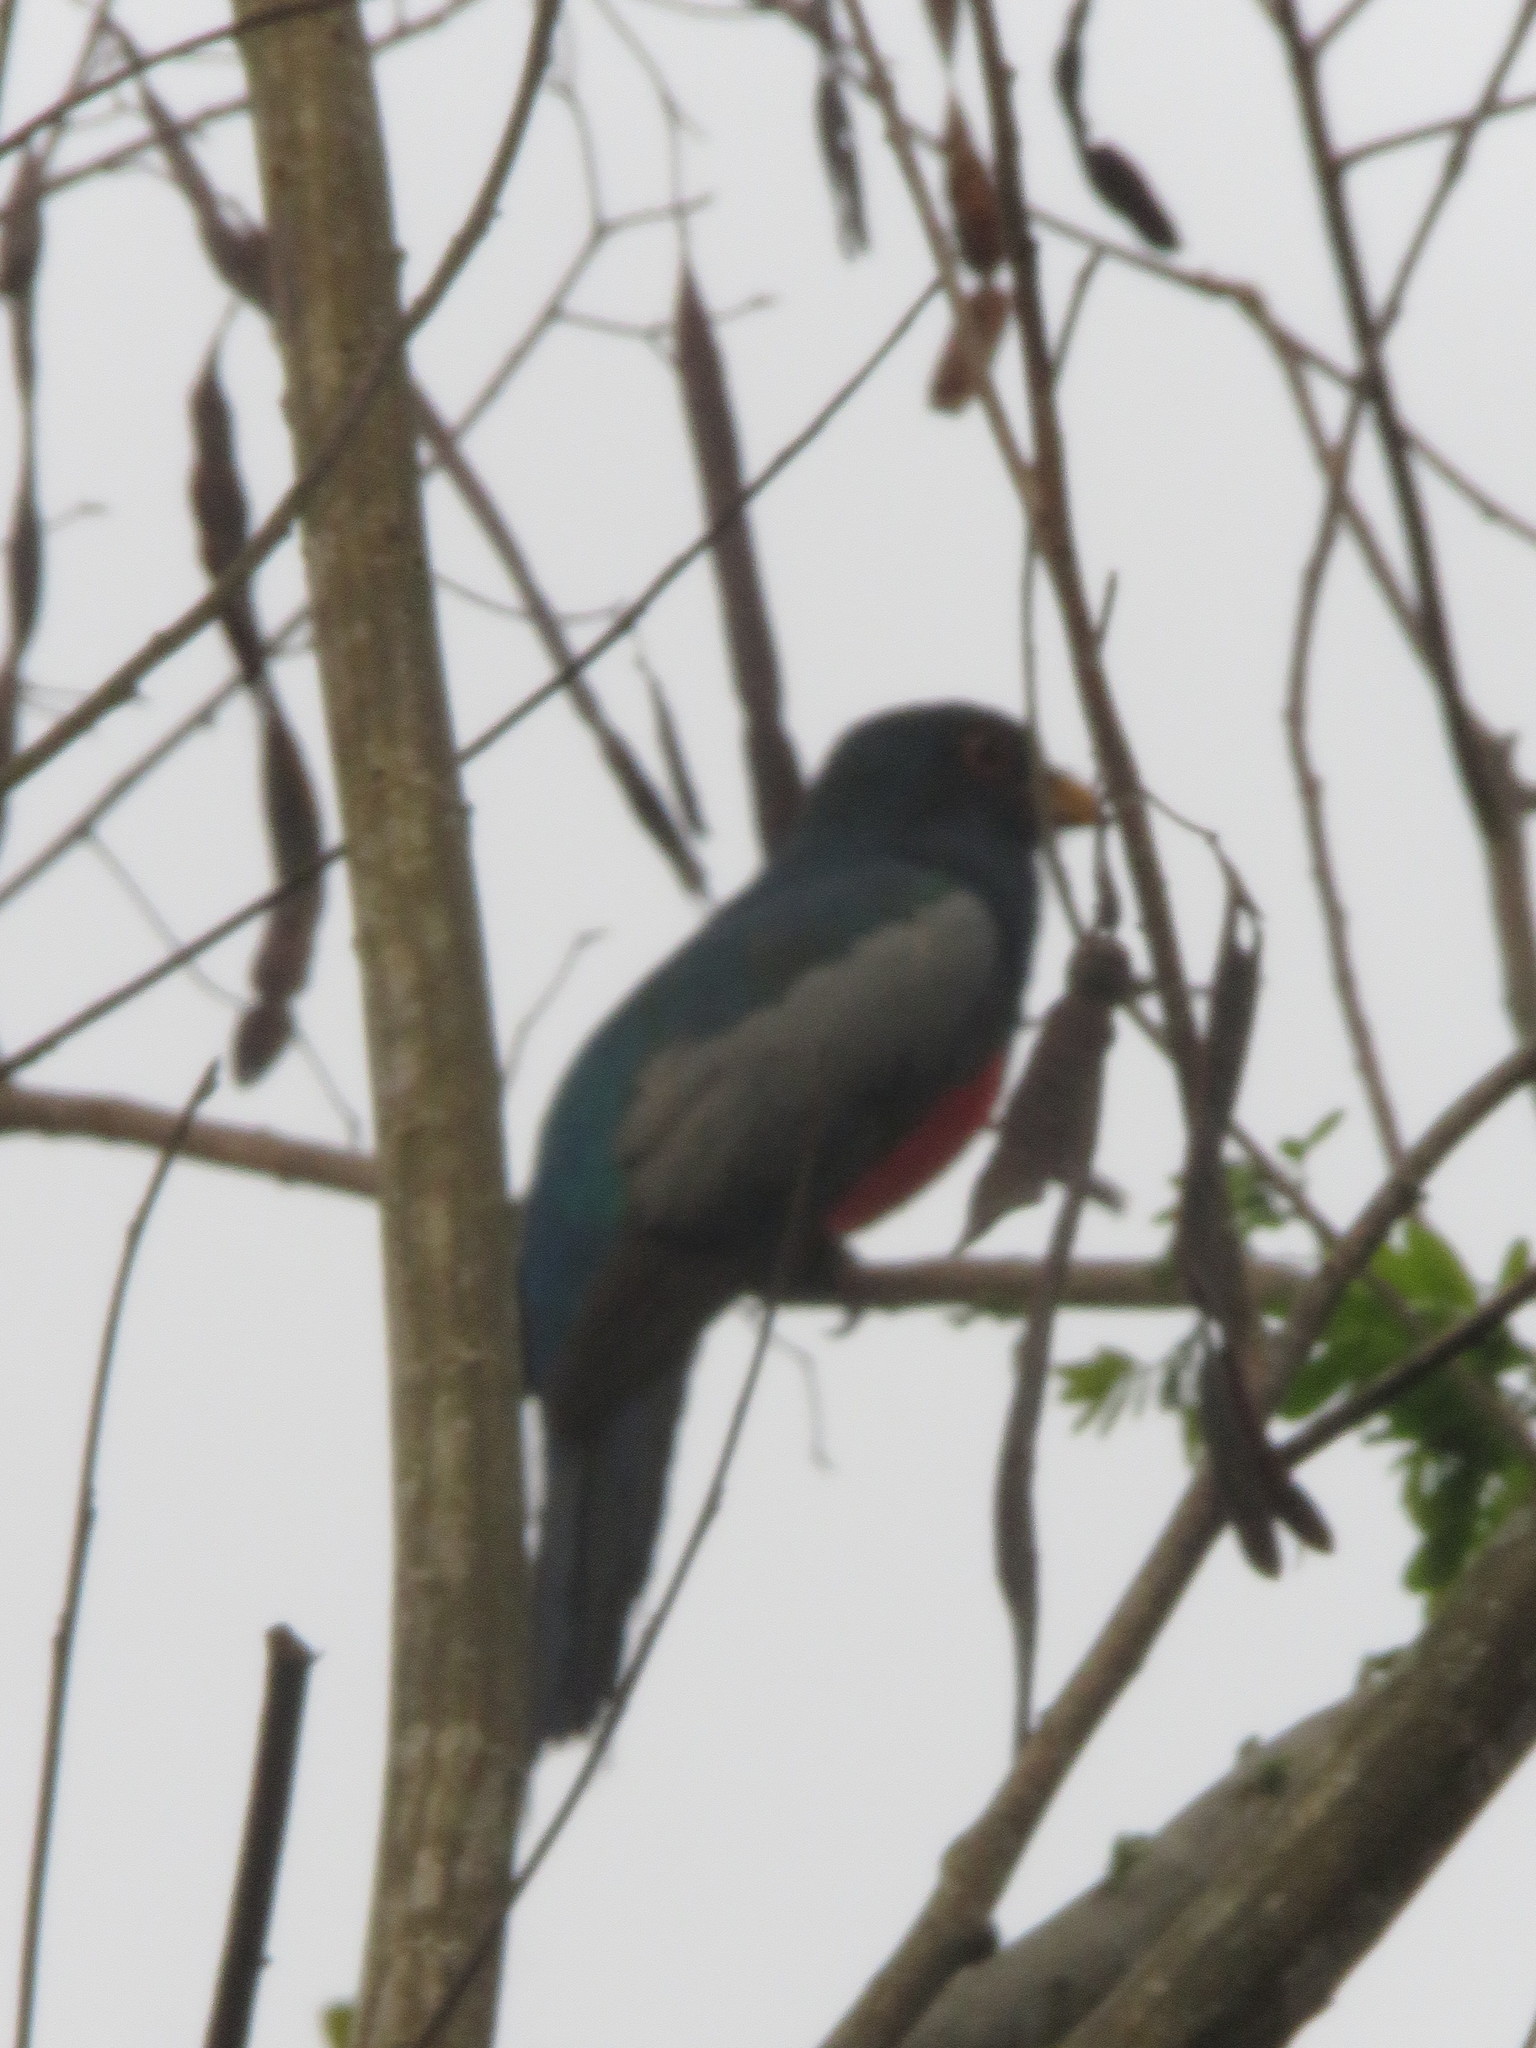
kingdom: Animalia
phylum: Chordata
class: Aves
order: Trogoniformes
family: Trogonidae
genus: Trogon
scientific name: Trogon curucui
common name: Blue-crowned trogon
